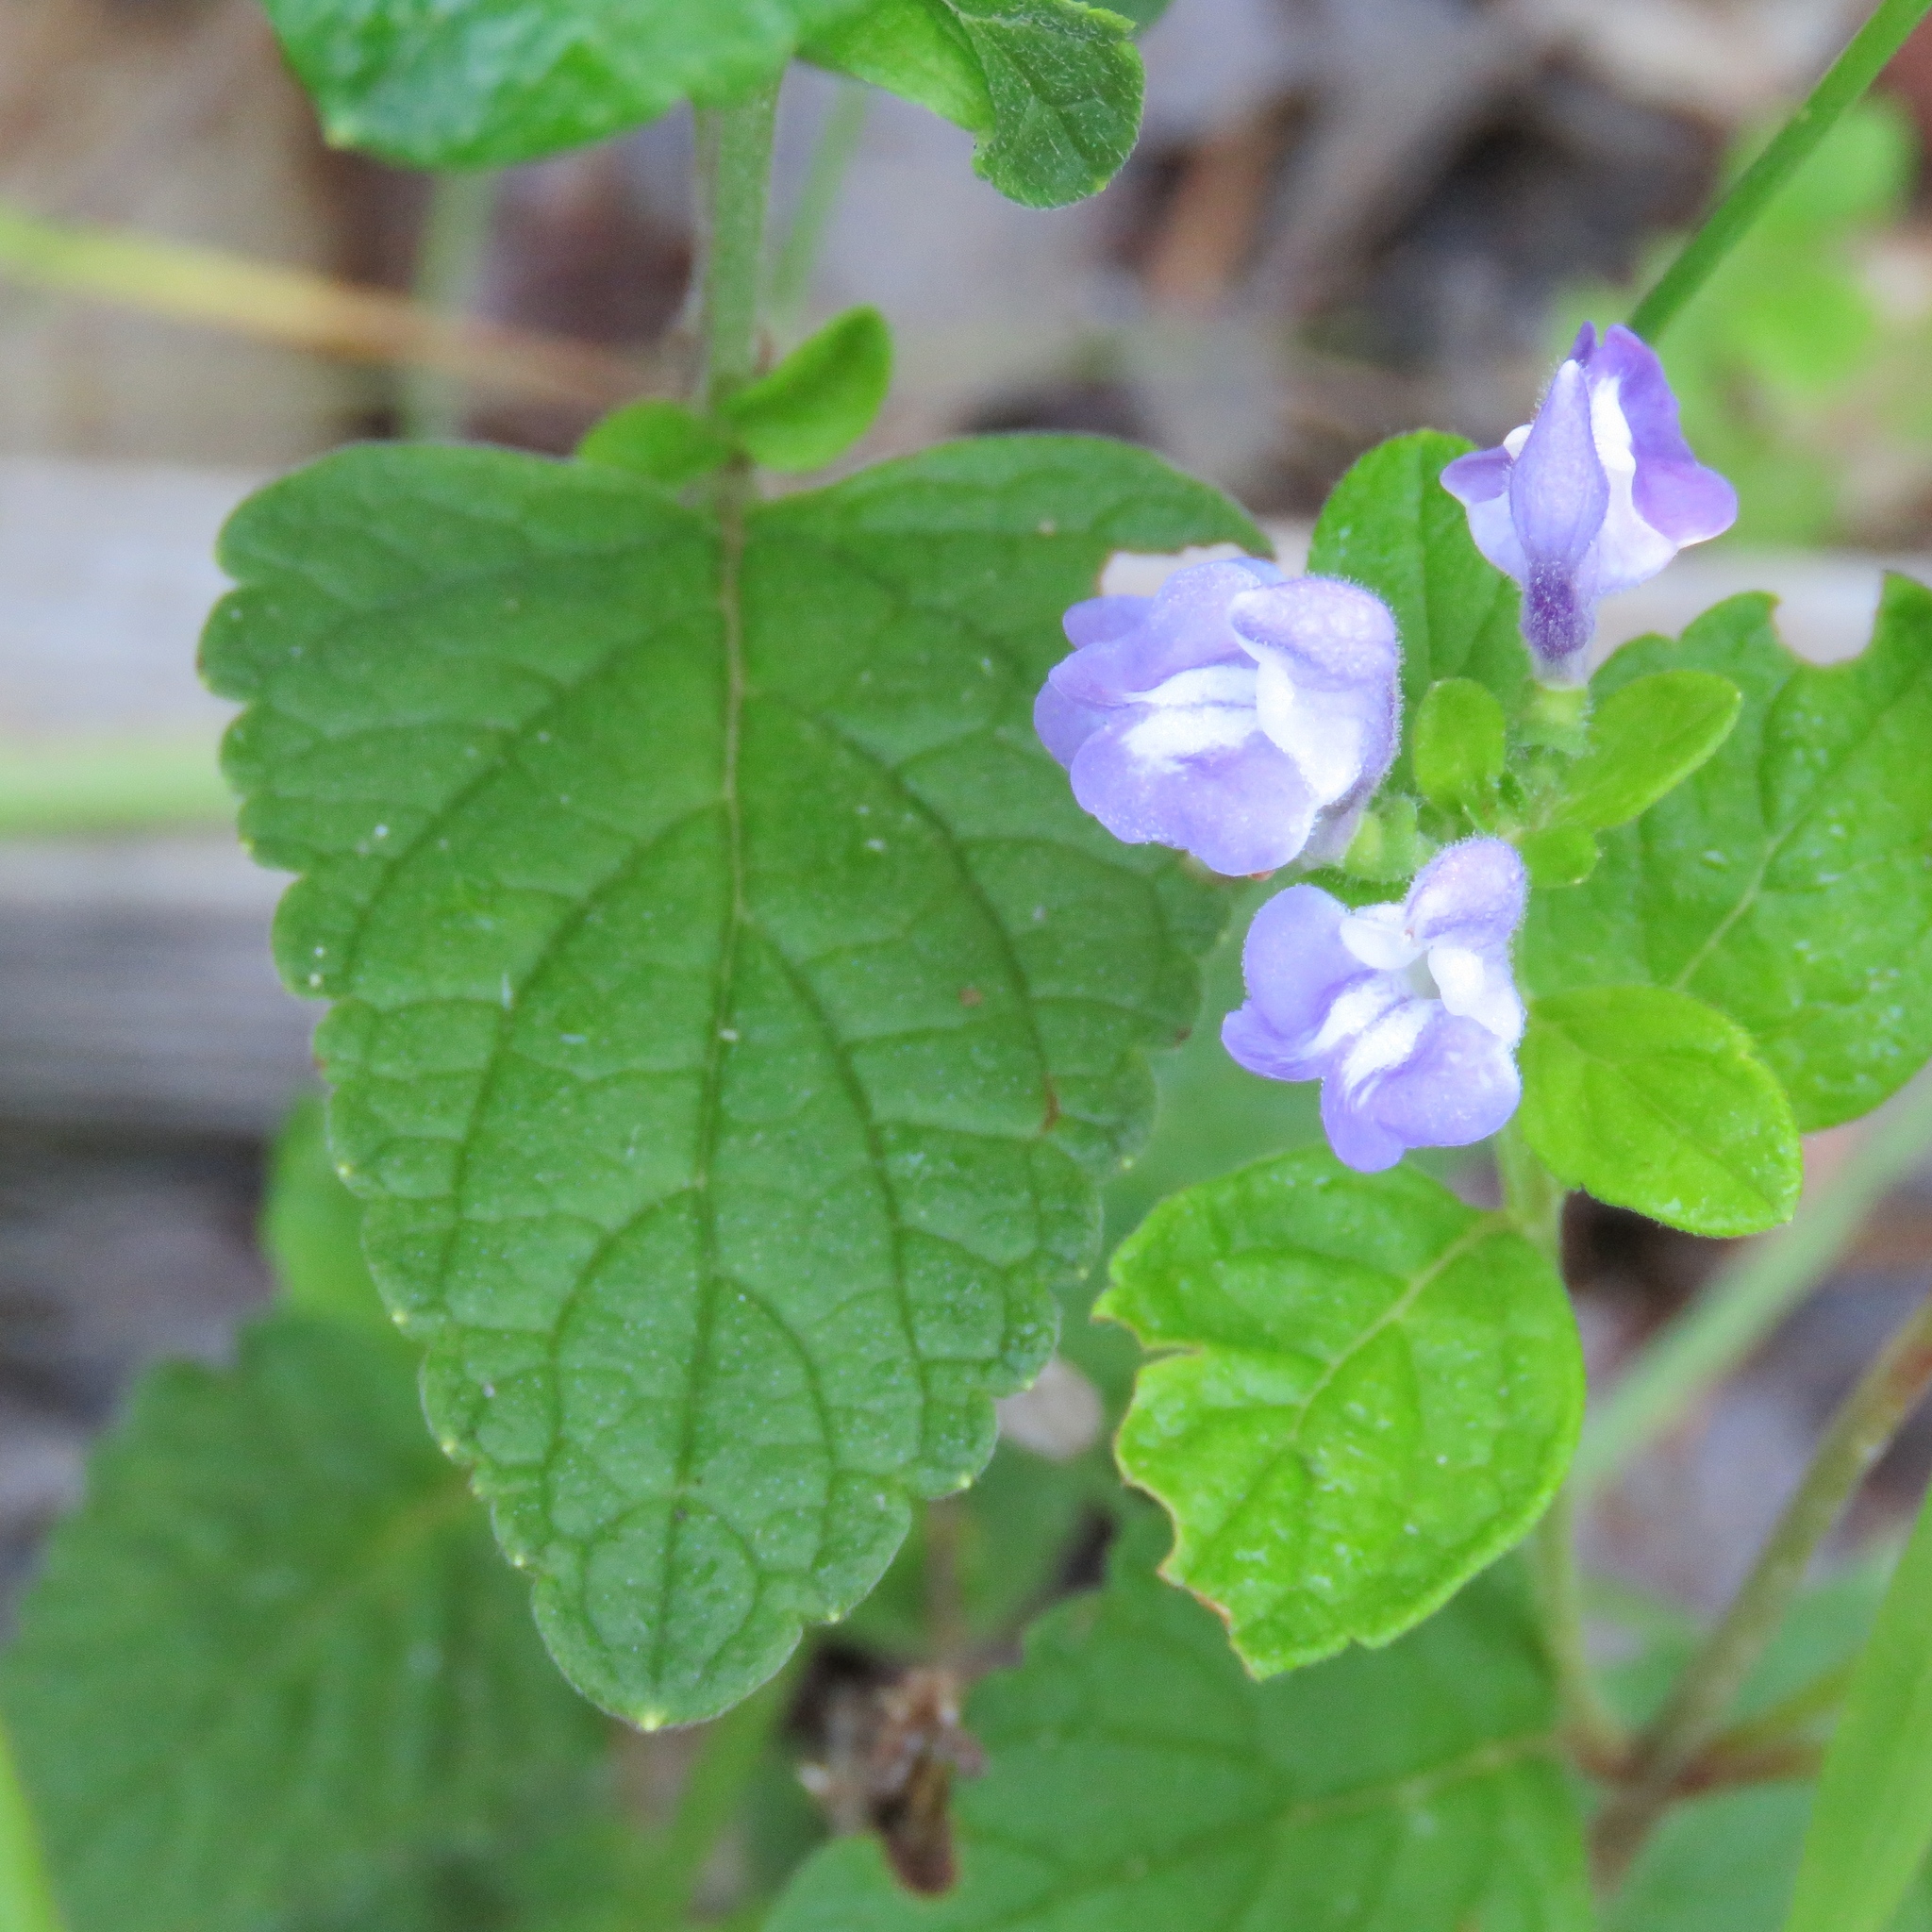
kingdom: Plantae
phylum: Tracheophyta
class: Magnoliopsida
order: Lamiales
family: Lamiaceae
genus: Scutellaria
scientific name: Scutellaria elliptica
